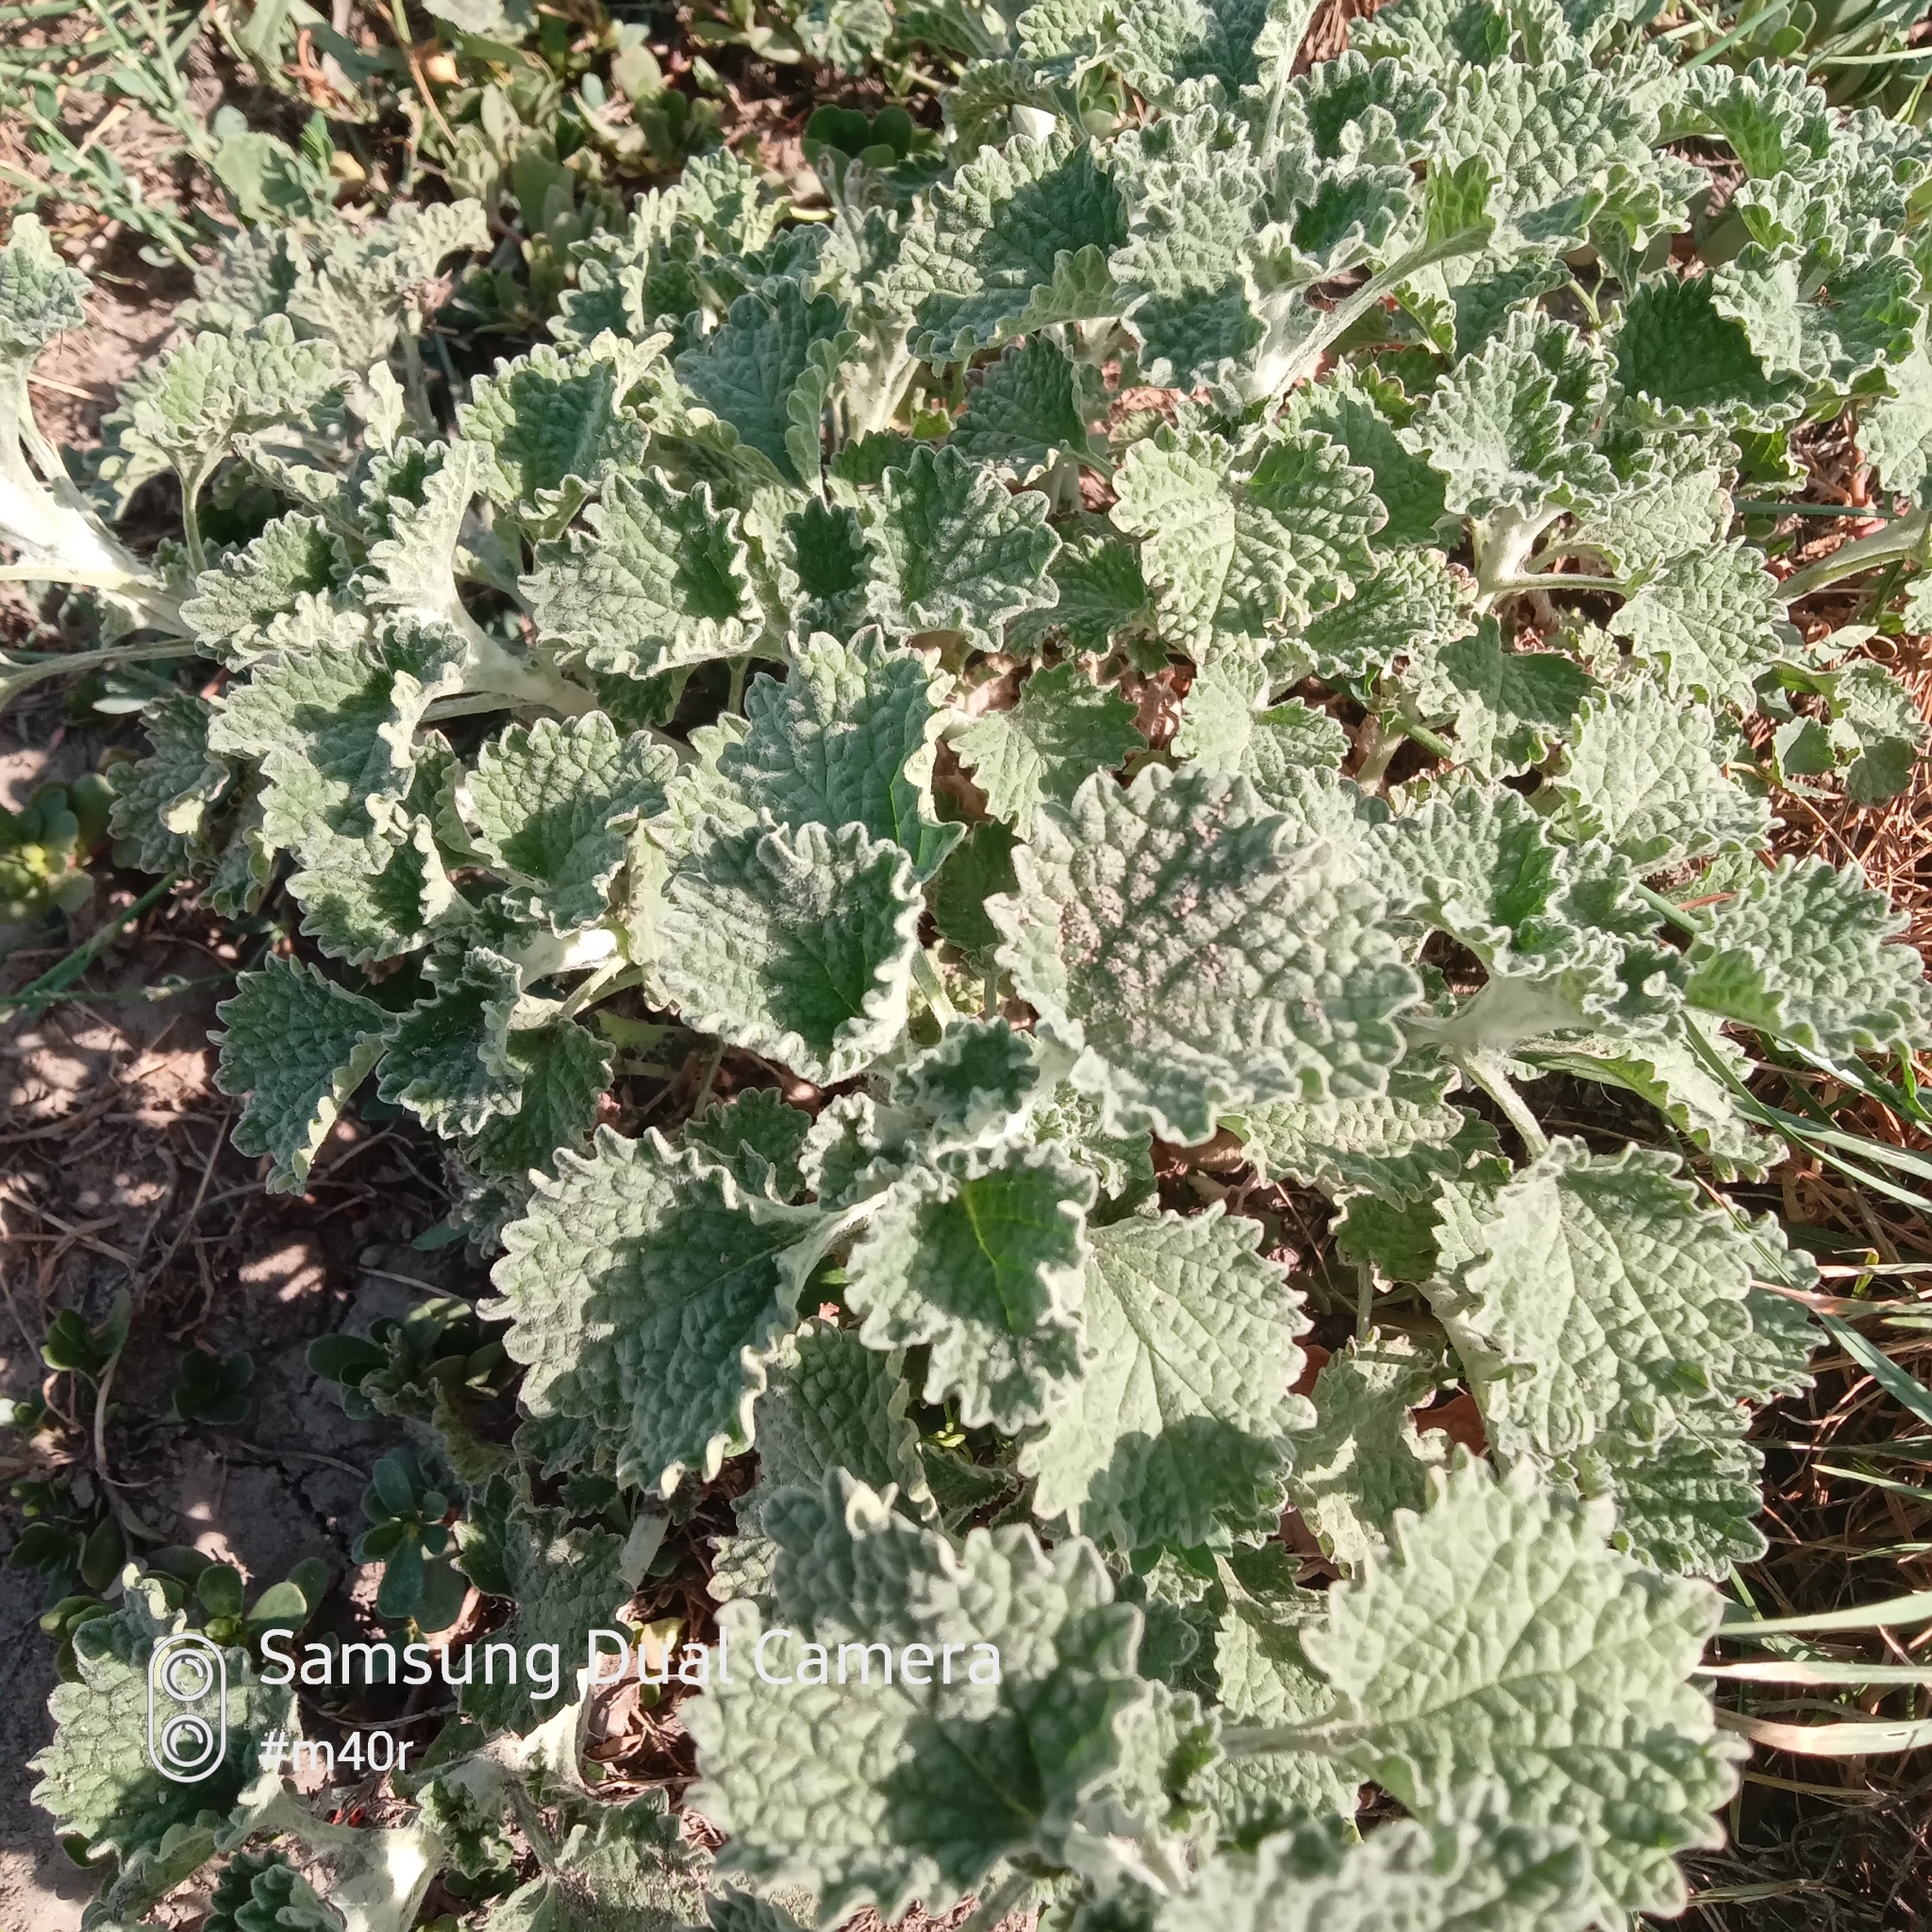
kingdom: Plantae
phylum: Tracheophyta
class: Magnoliopsida
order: Lamiales
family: Lamiaceae
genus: Marrubium
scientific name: Marrubium vulgare
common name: Horehound
